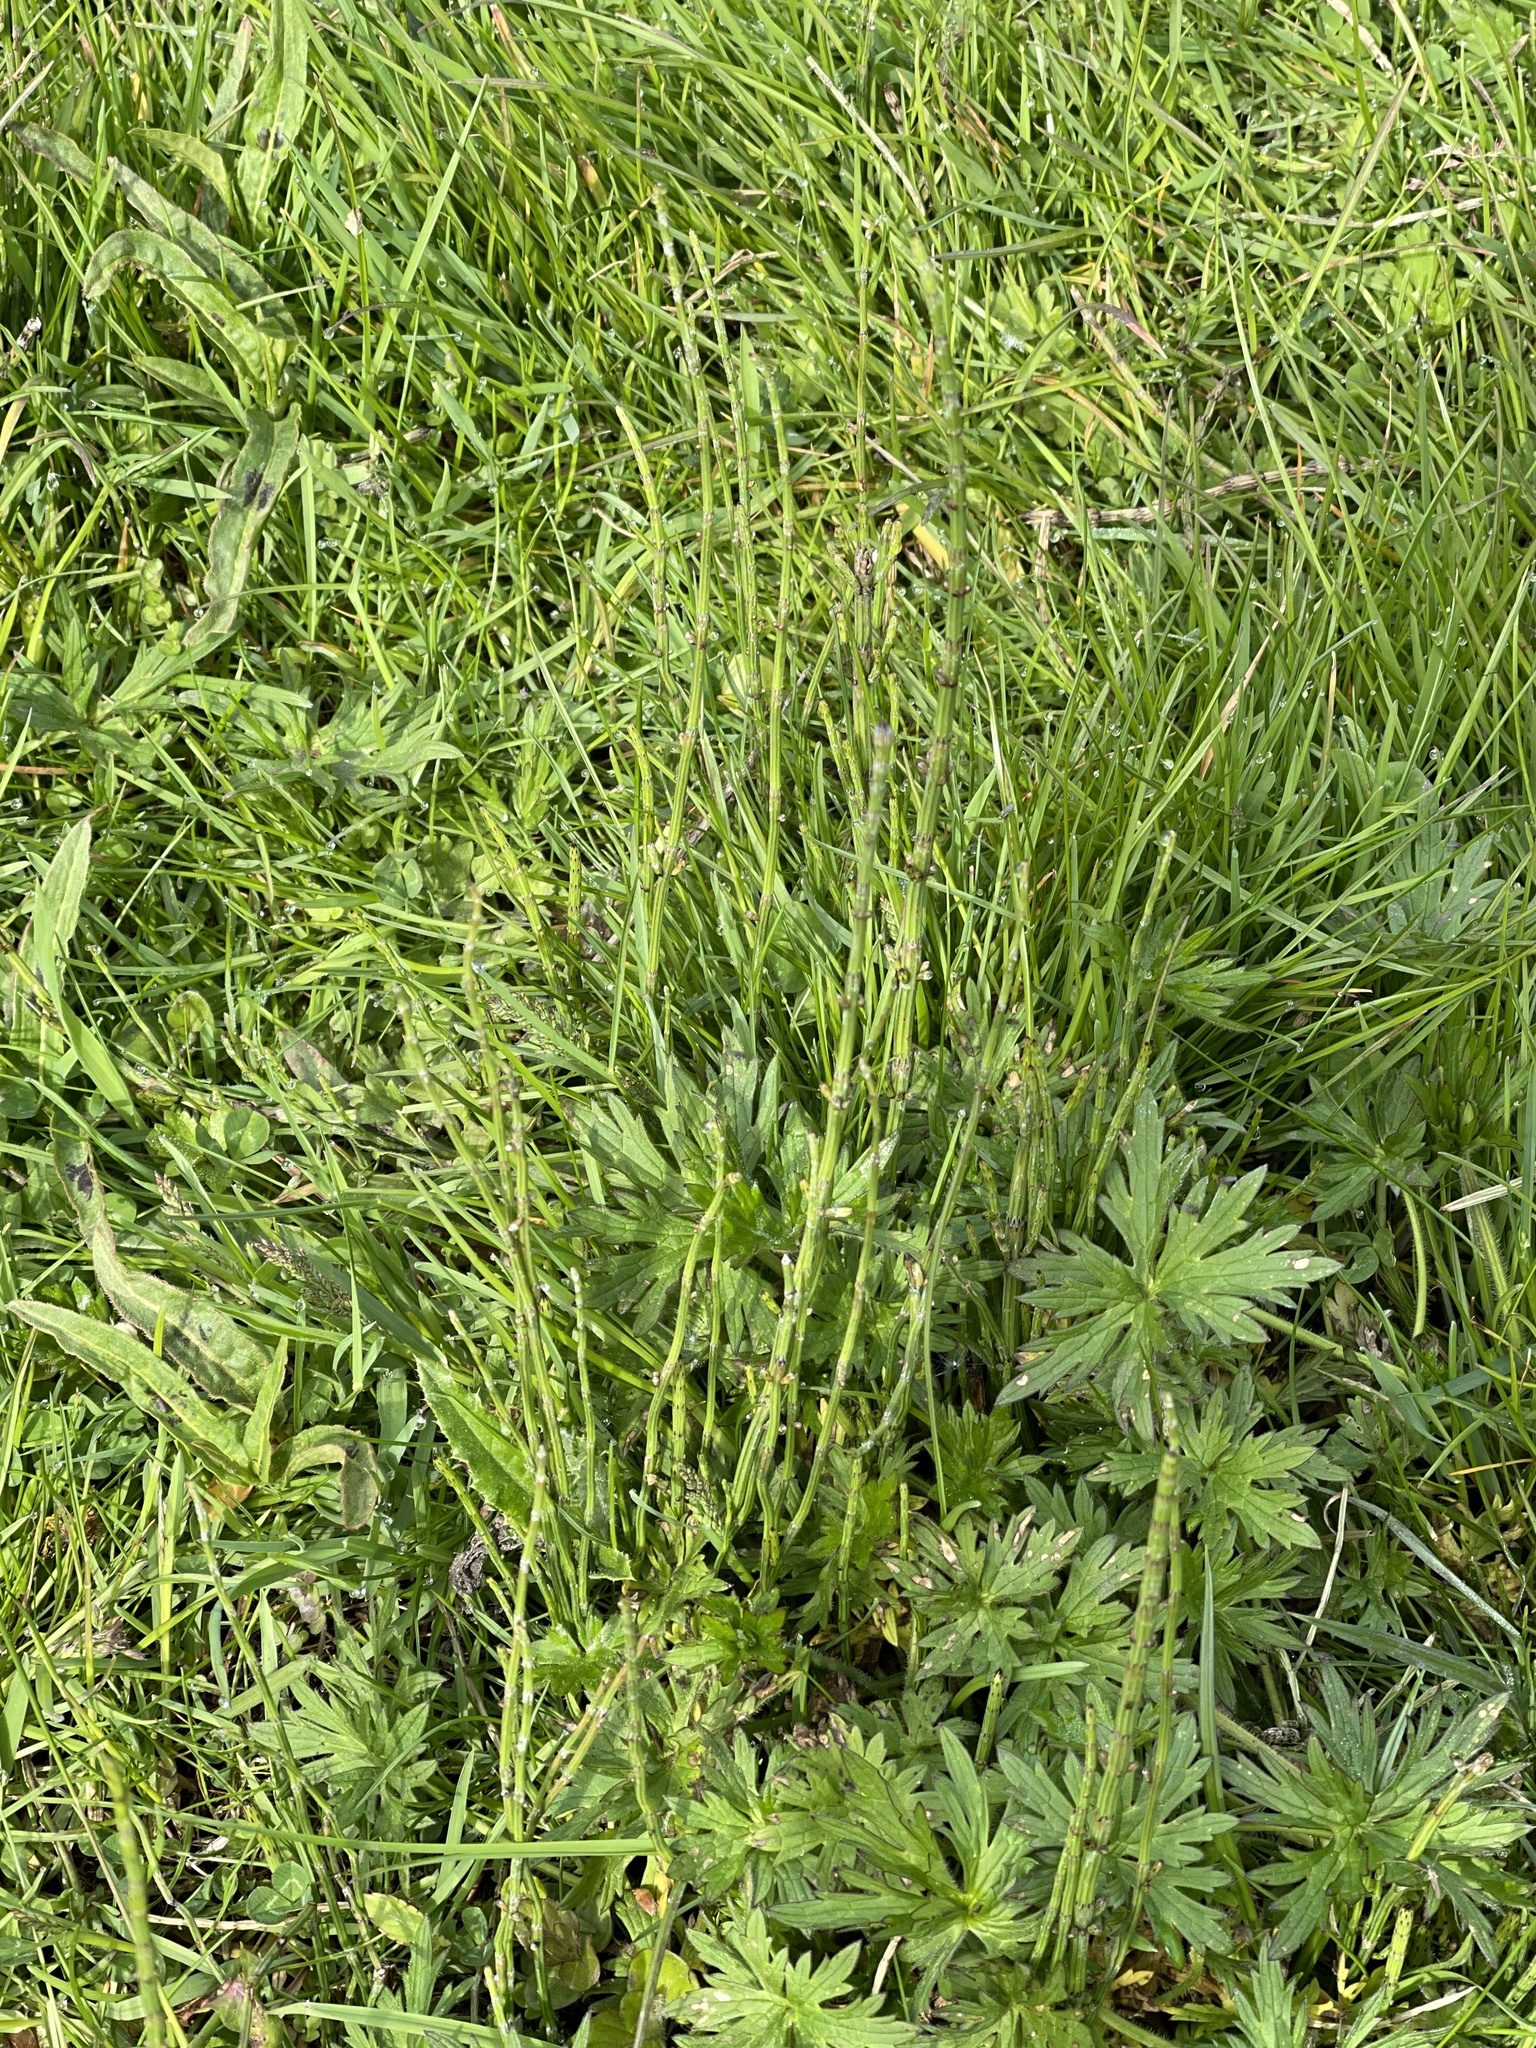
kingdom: Plantae
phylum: Tracheophyta
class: Polypodiopsida
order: Equisetales
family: Equisetaceae
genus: Equisetum
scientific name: Equisetum palustre
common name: Marsh horsetail
